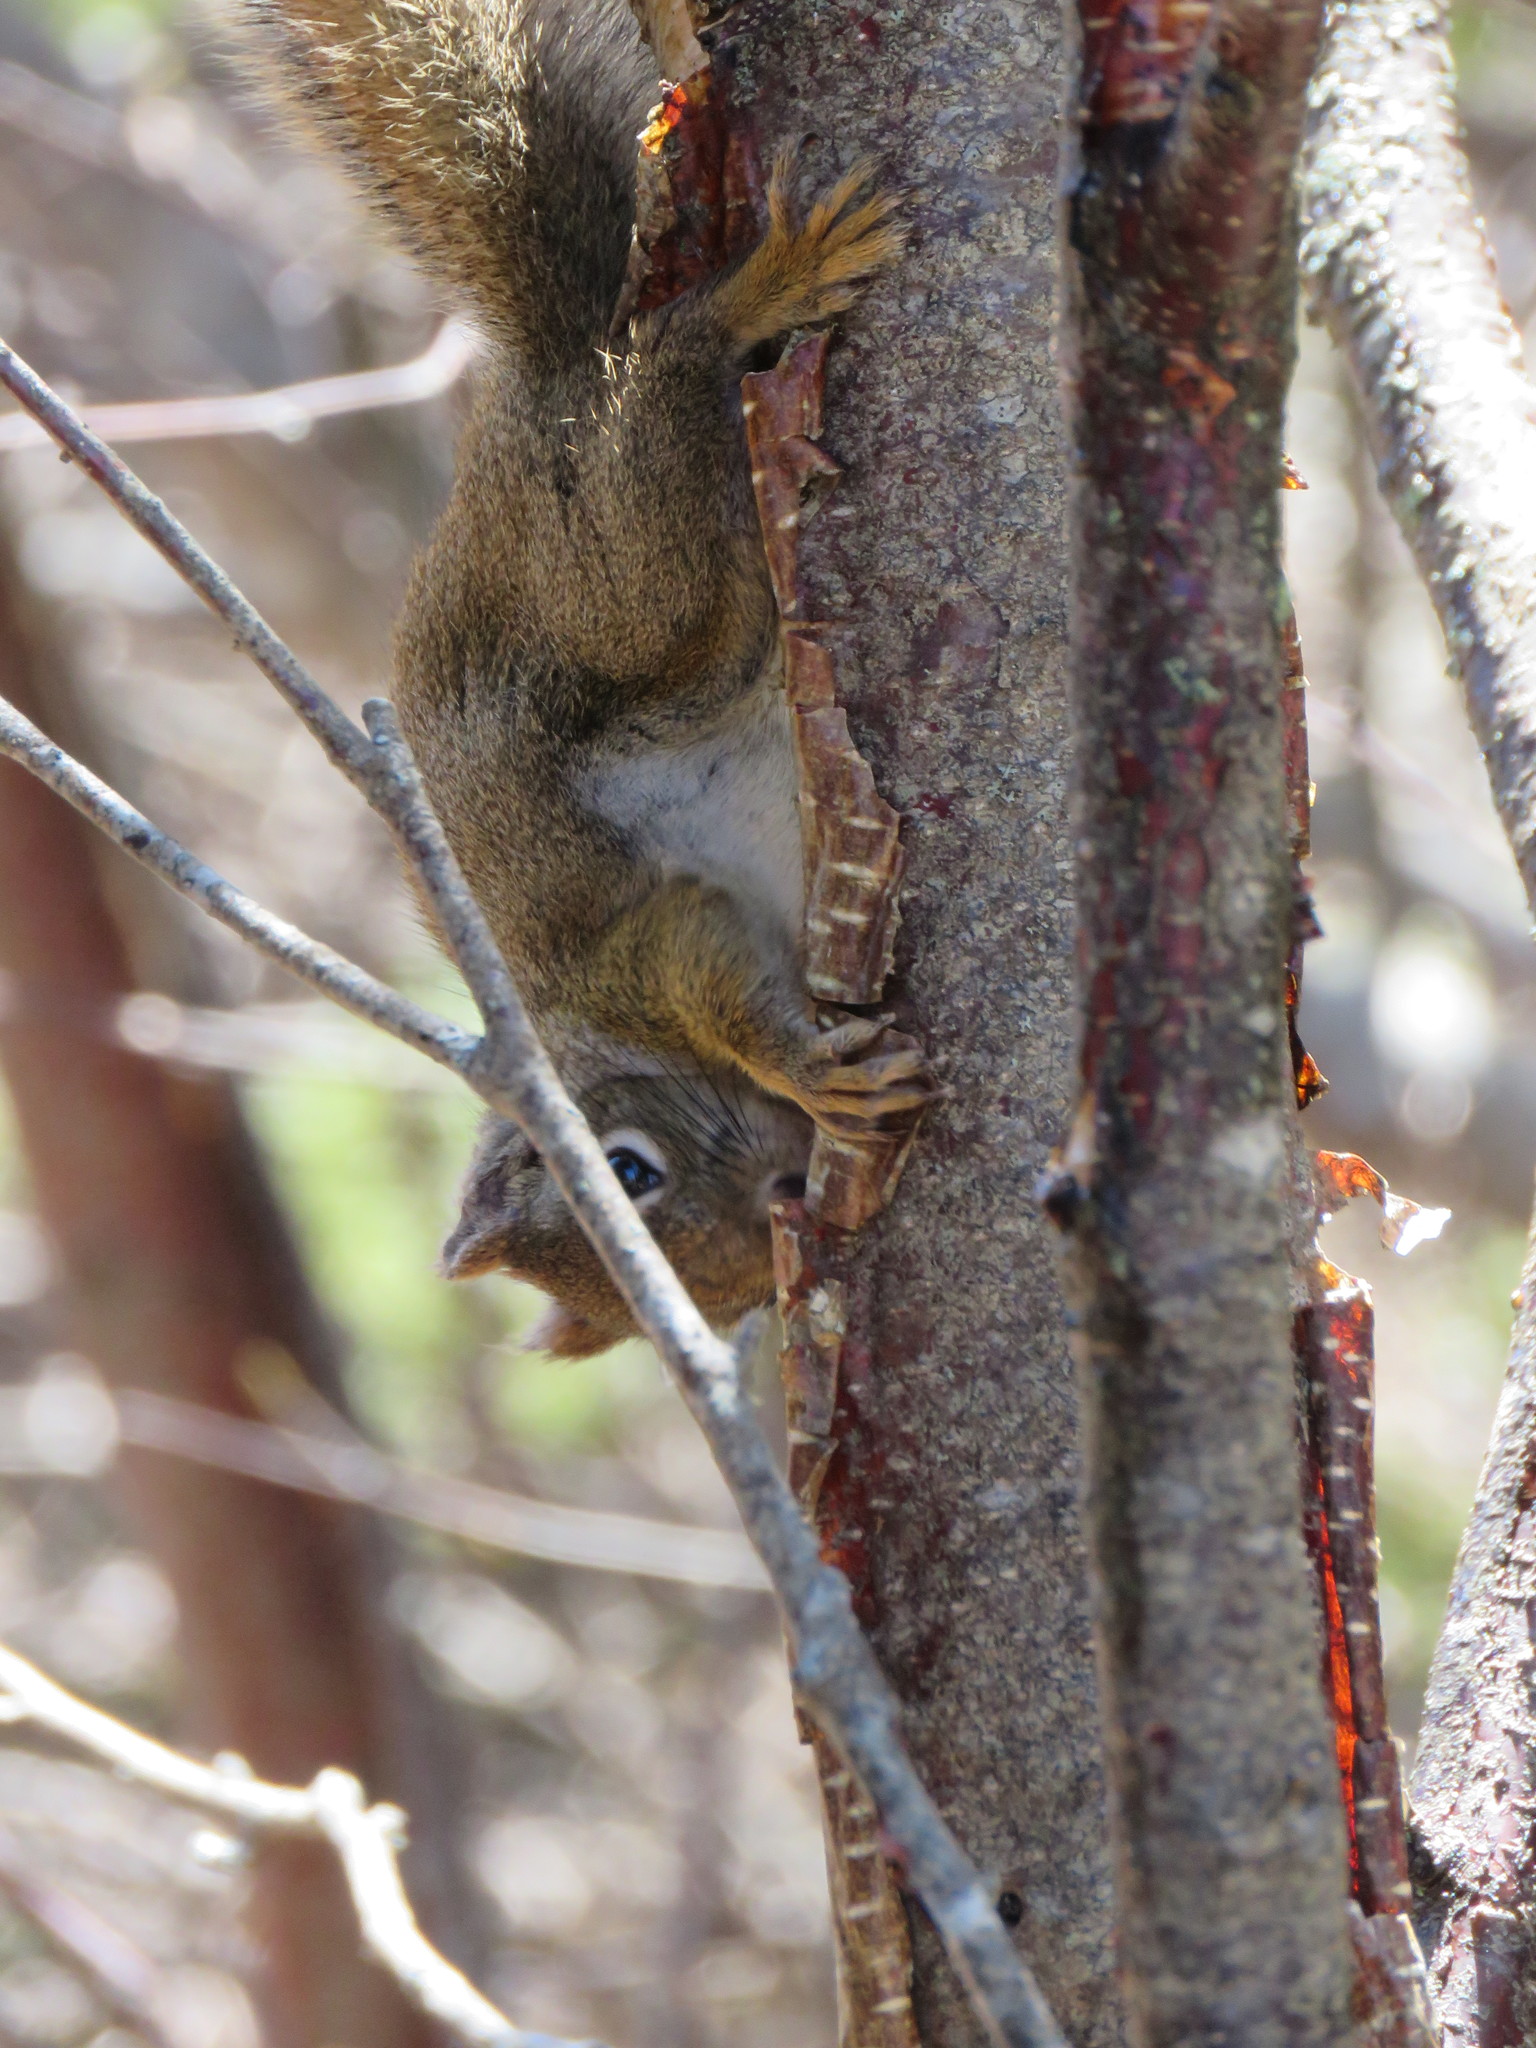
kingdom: Animalia
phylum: Chordata
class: Mammalia
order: Rodentia
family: Sciuridae
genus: Tamiasciurus
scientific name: Tamiasciurus hudsonicus
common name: Red squirrel
